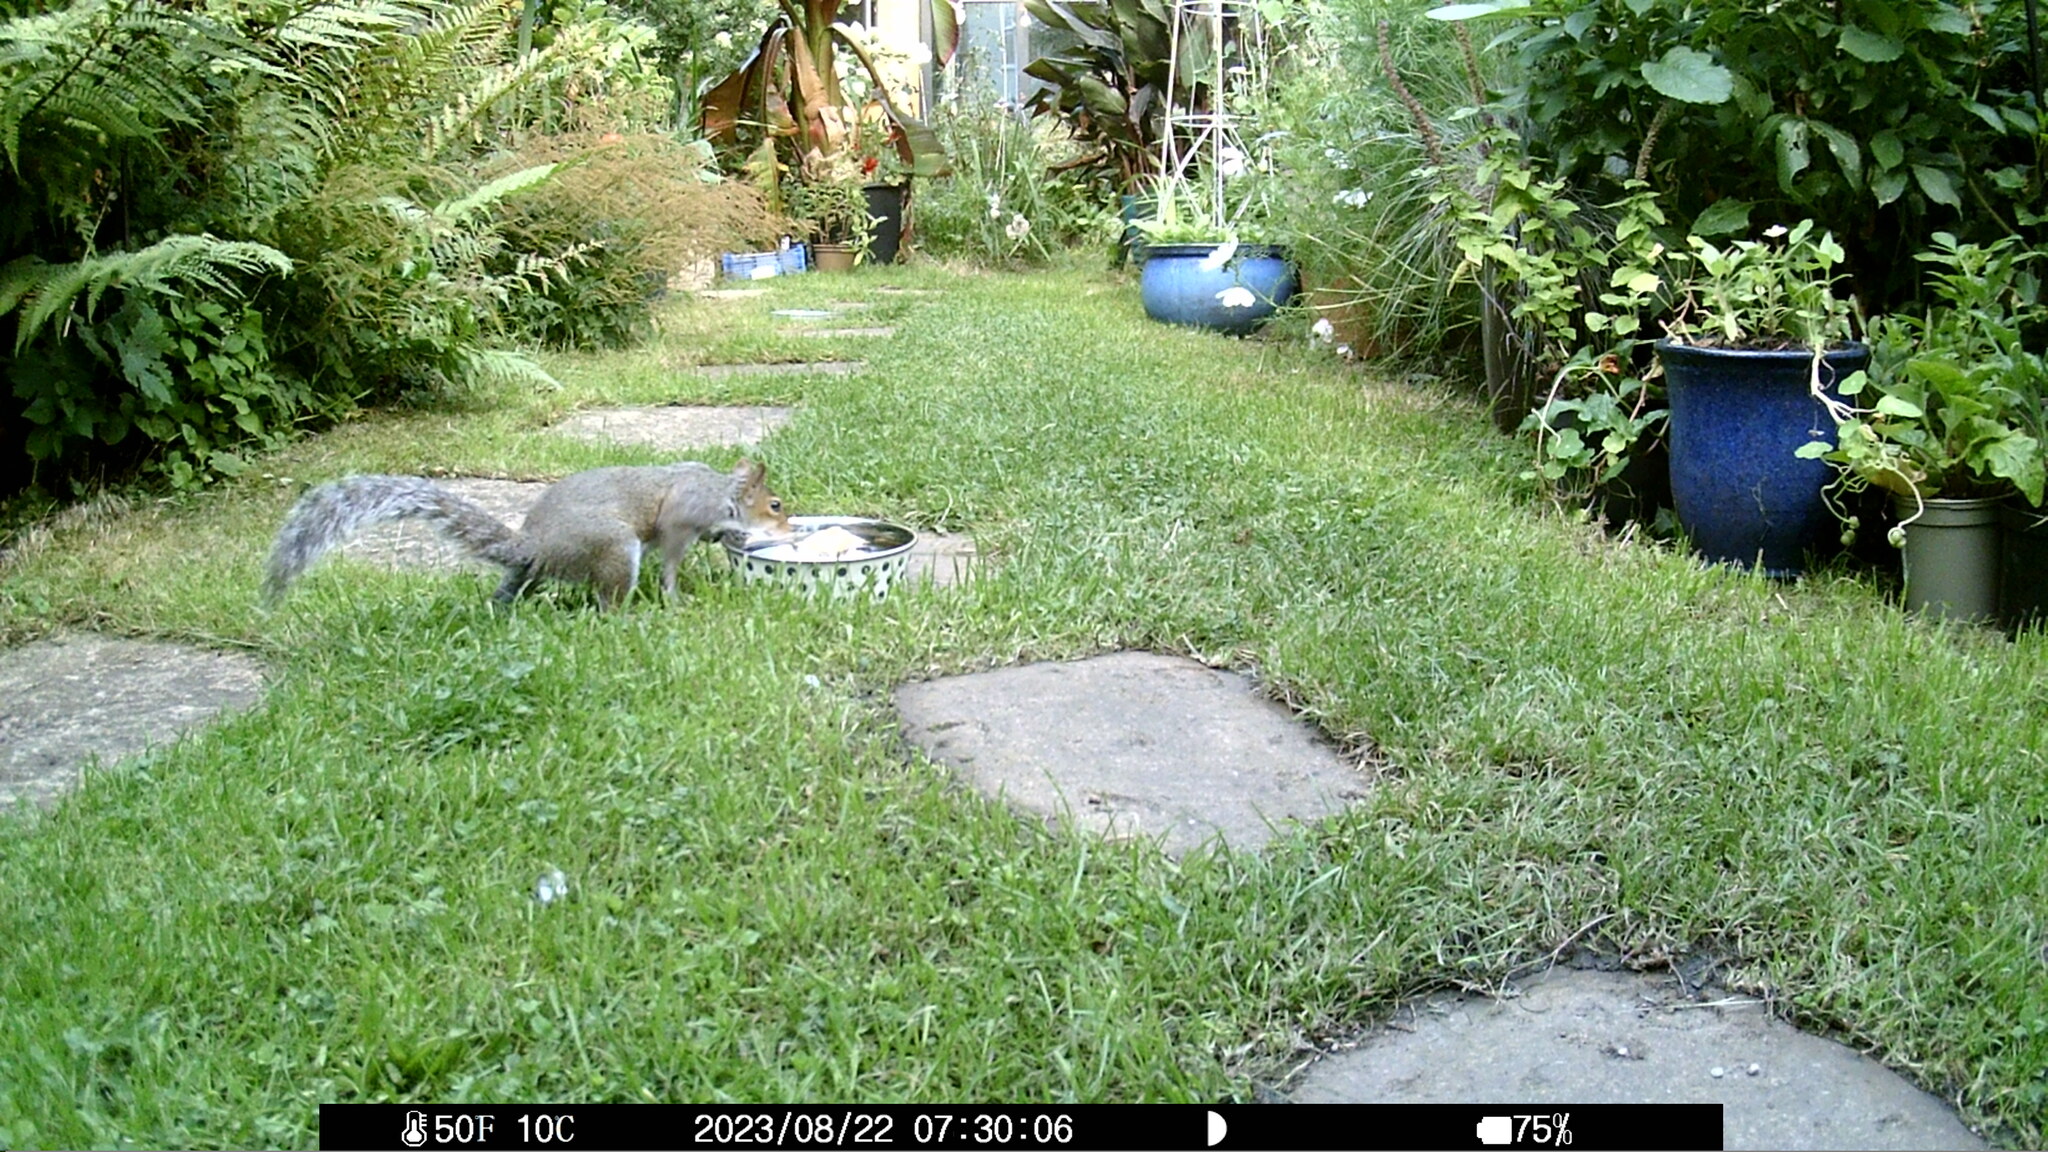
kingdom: Animalia
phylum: Chordata
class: Mammalia
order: Rodentia
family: Sciuridae
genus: Sciurus
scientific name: Sciurus carolinensis
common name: Eastern gray squirrel
